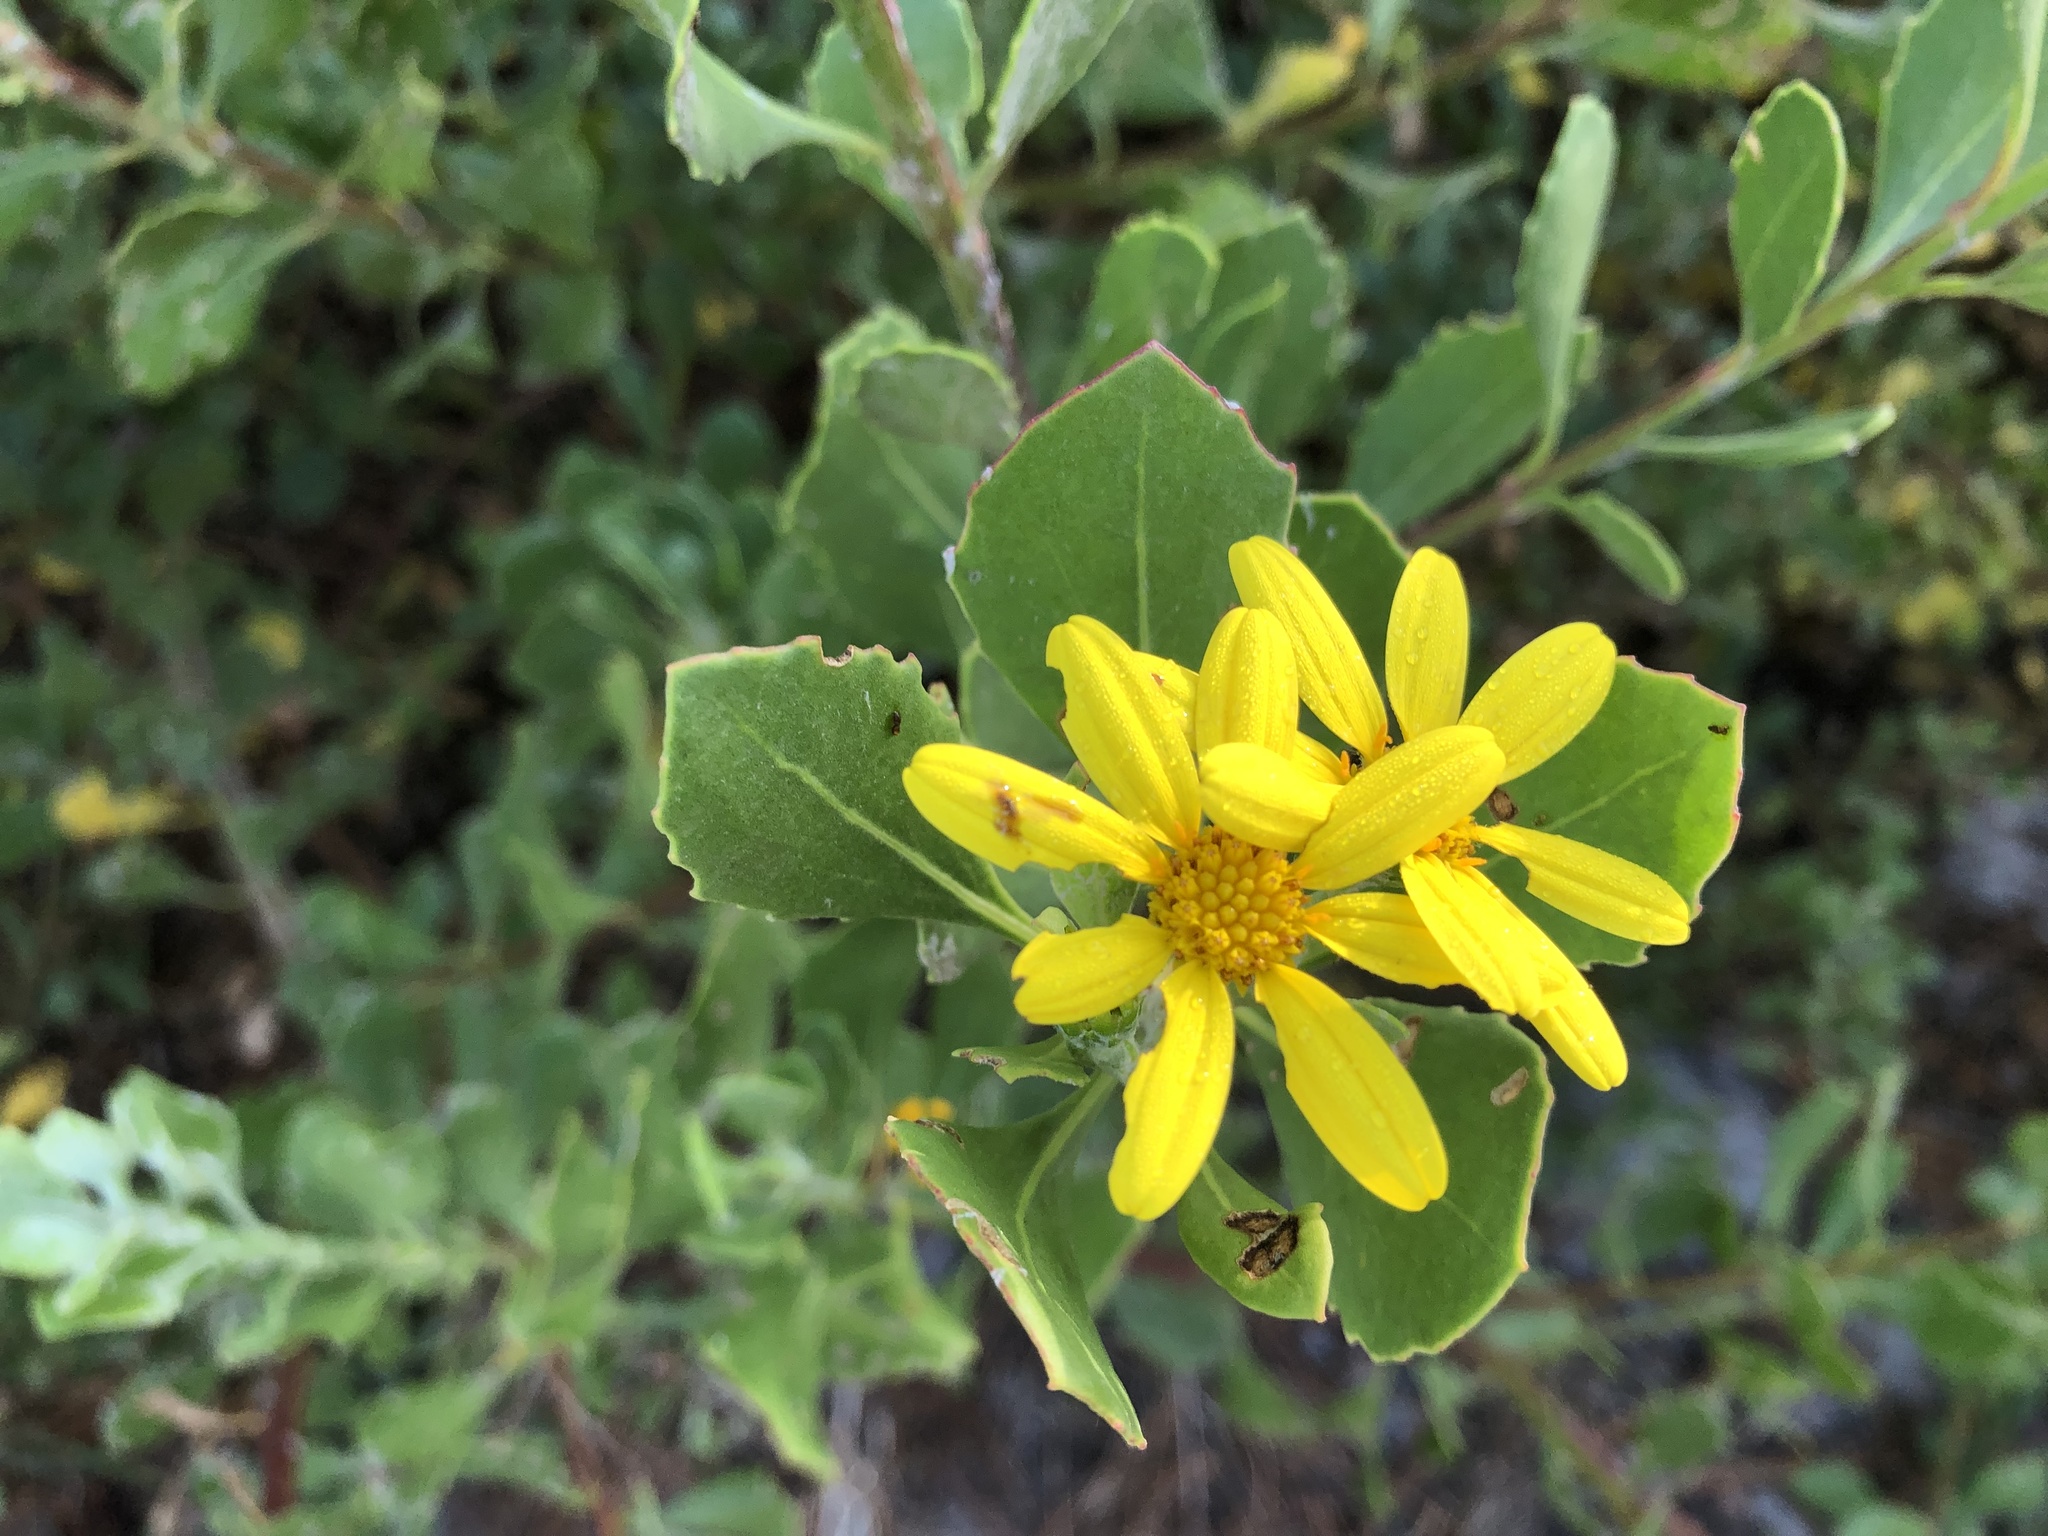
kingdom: Plantae
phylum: Tracheophyta
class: Magnoliopsida
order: Asterales
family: Asteraceae
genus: Osteospermum
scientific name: Osteospermum moniliferum
